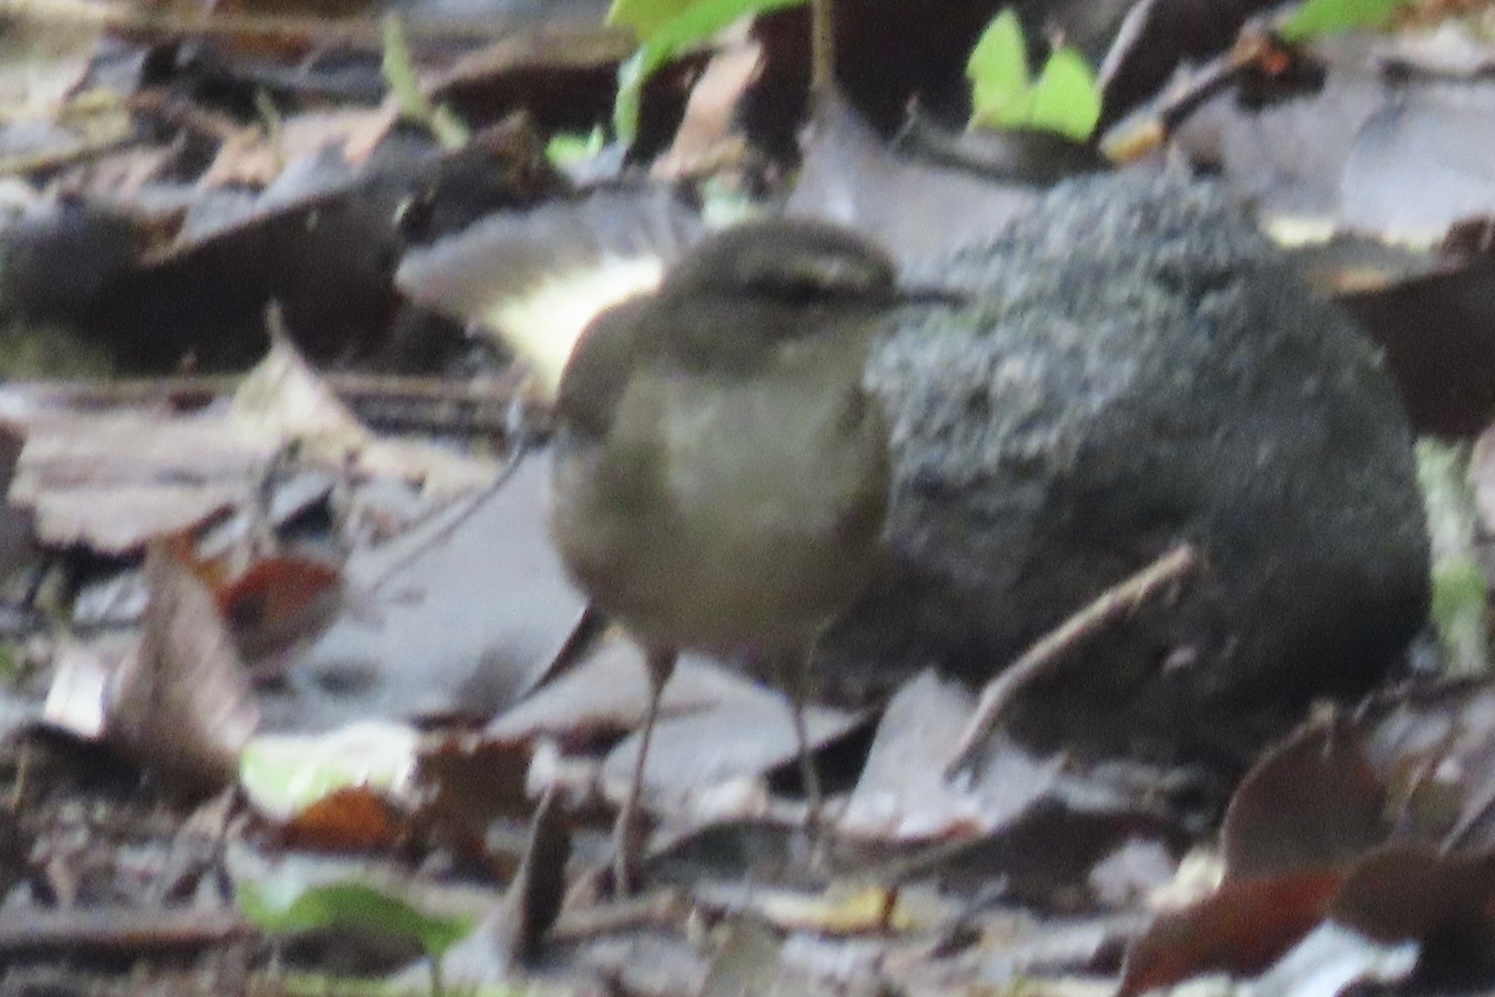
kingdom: Animalia
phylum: Chordata
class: Aves
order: Passeriformes
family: Parulidae
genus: Myiothlypis
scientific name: Myiothlypis fulvicauda
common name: Buff-rumped warbler
